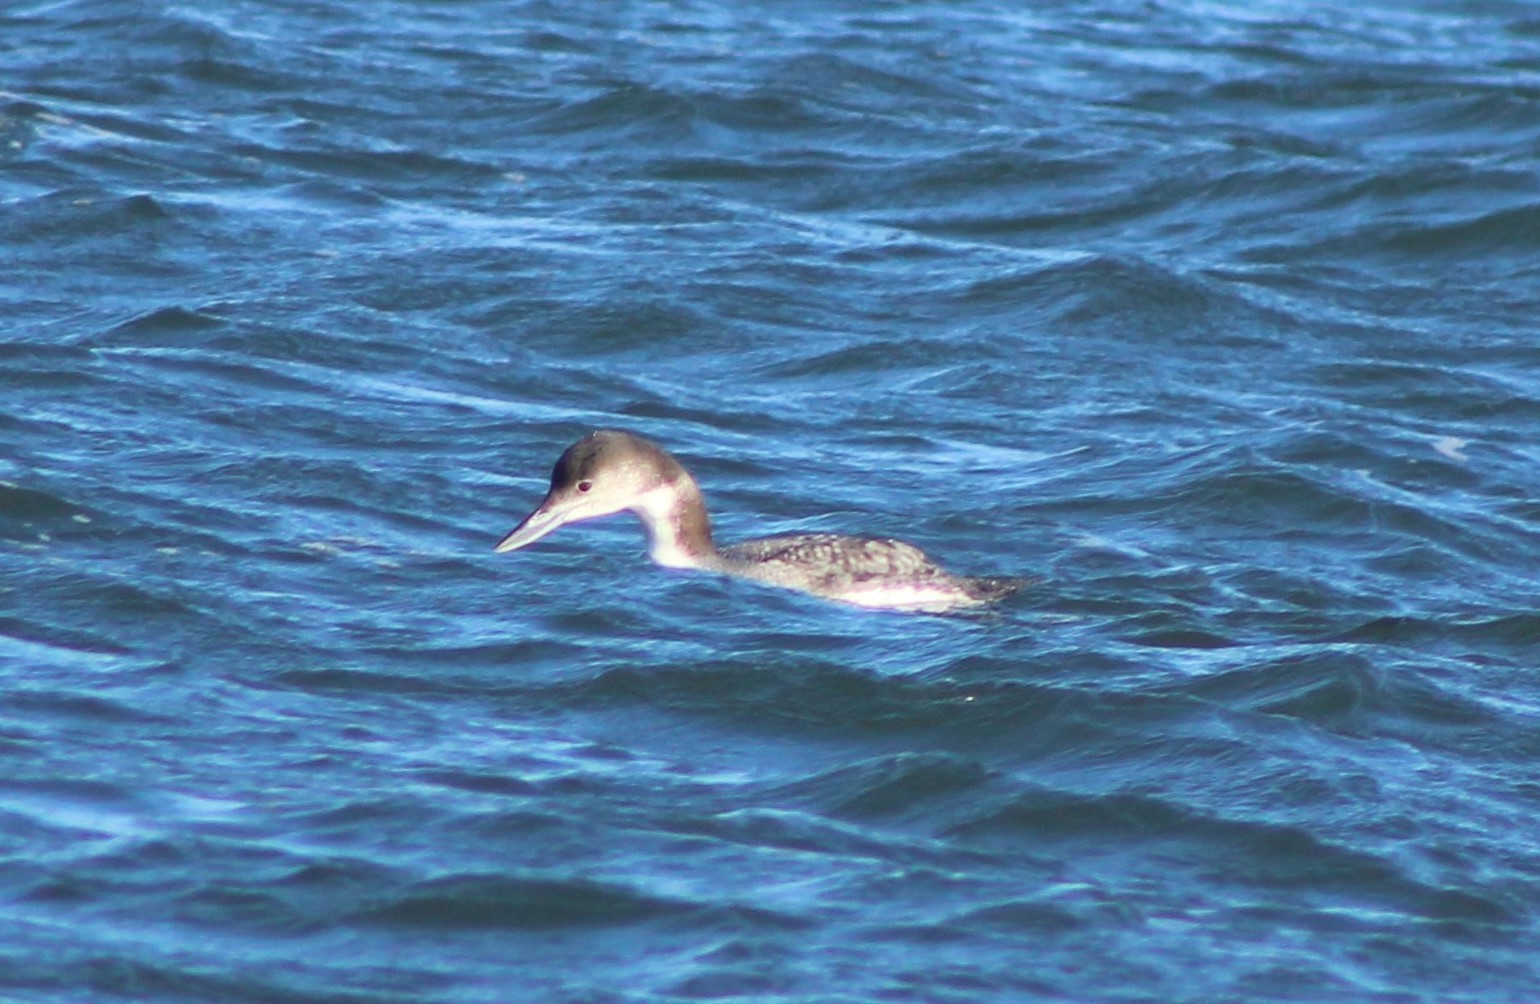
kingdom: Animalia
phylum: Chordata
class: Aves
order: Gaviiformes
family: Gaviidae
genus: Gavia
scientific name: Gavia immer
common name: Common loon
